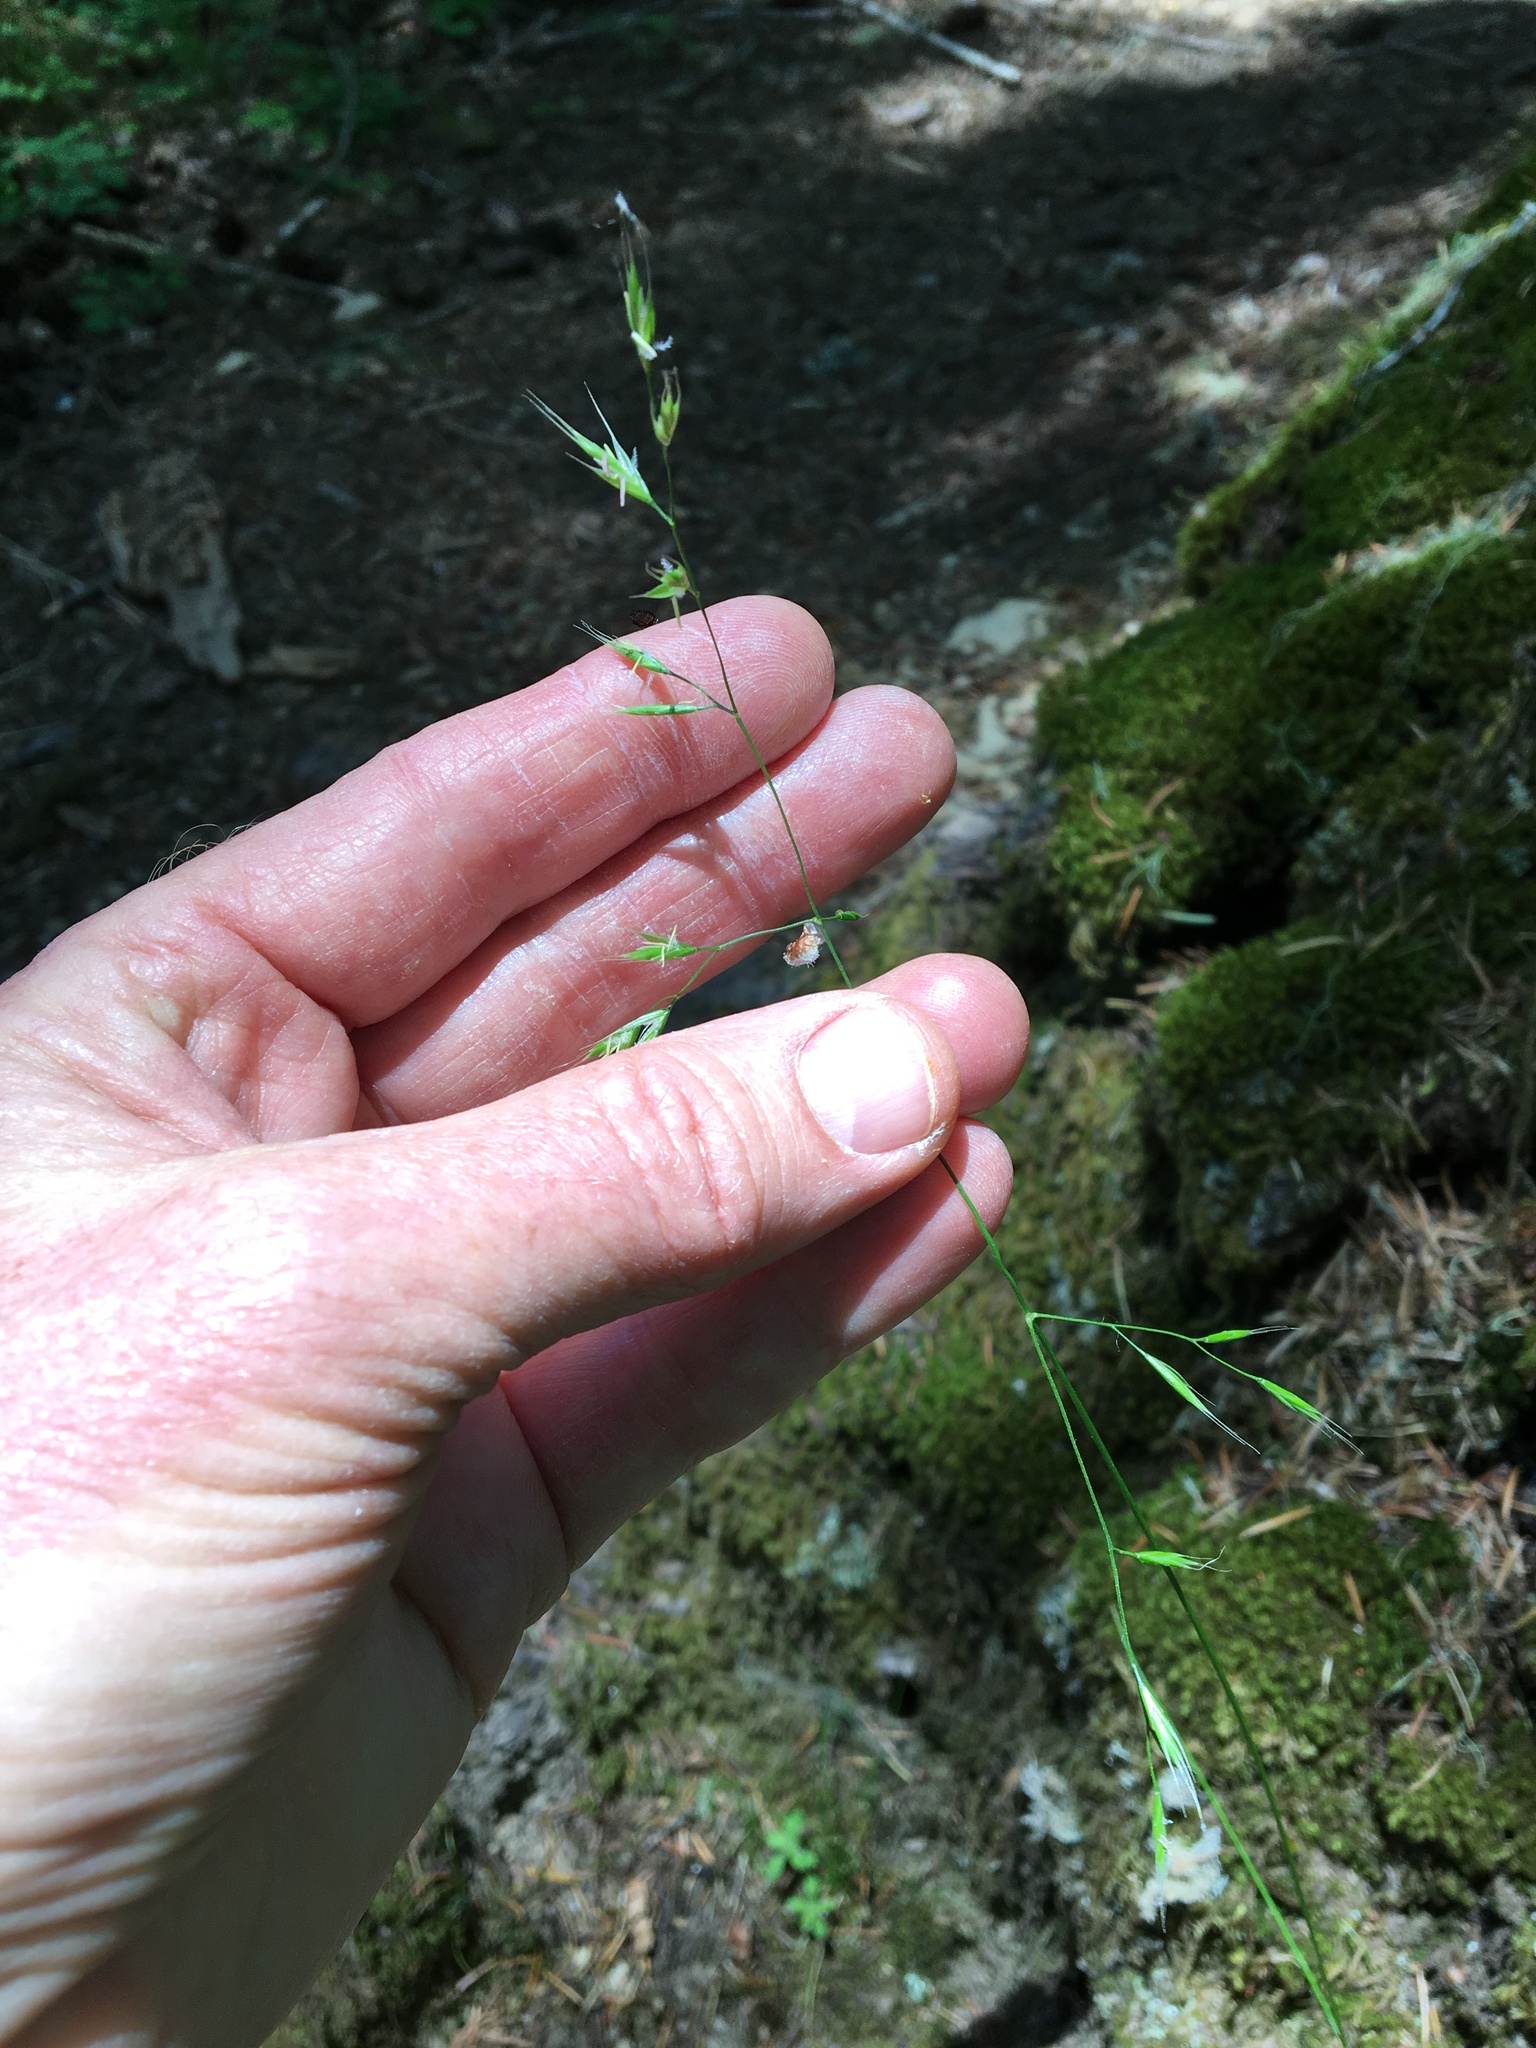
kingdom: Plantae
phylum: Tracheophyta
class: Liliopsida
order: Poales
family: Poaceae
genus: Festuca
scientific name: Festuca occidentalis
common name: Western fescue
